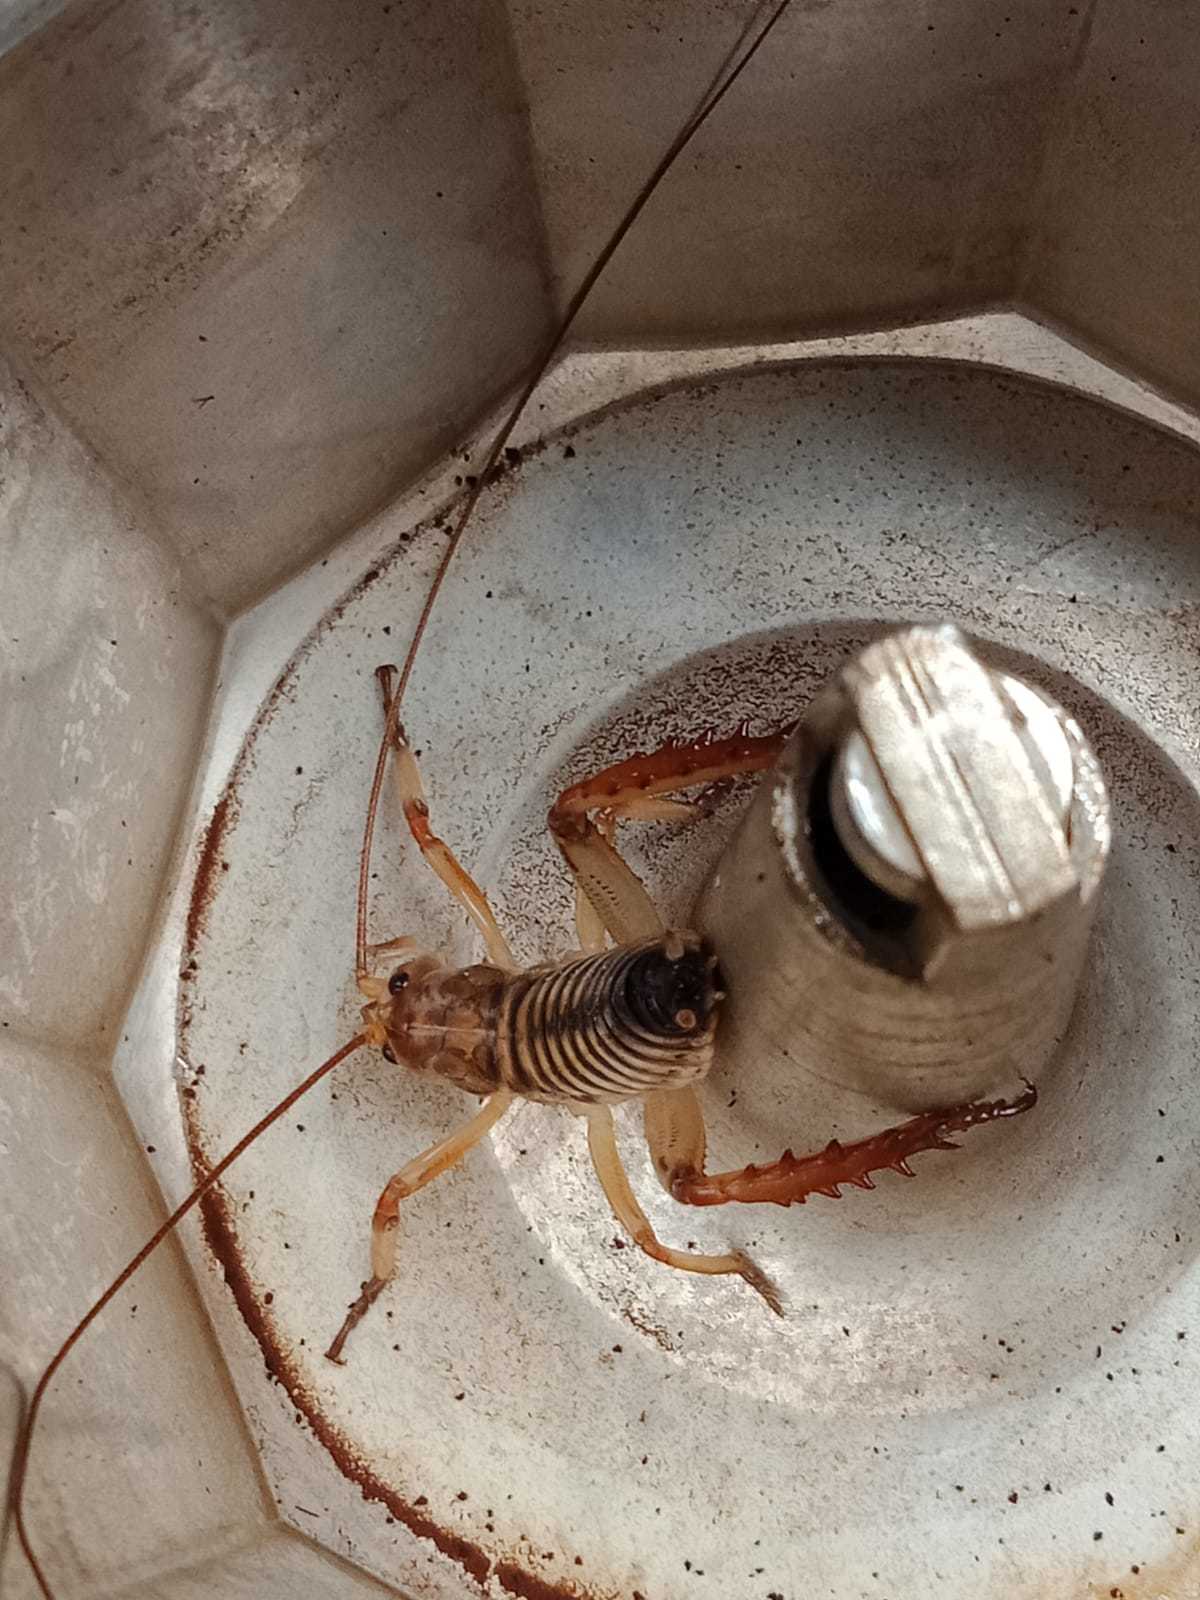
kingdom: Animalia
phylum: Arthropoda
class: Insecta
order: Orthoptera
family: Anostostomatidae
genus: Hemideina
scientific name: Hemideina crassidens
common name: Wellington tree weta
